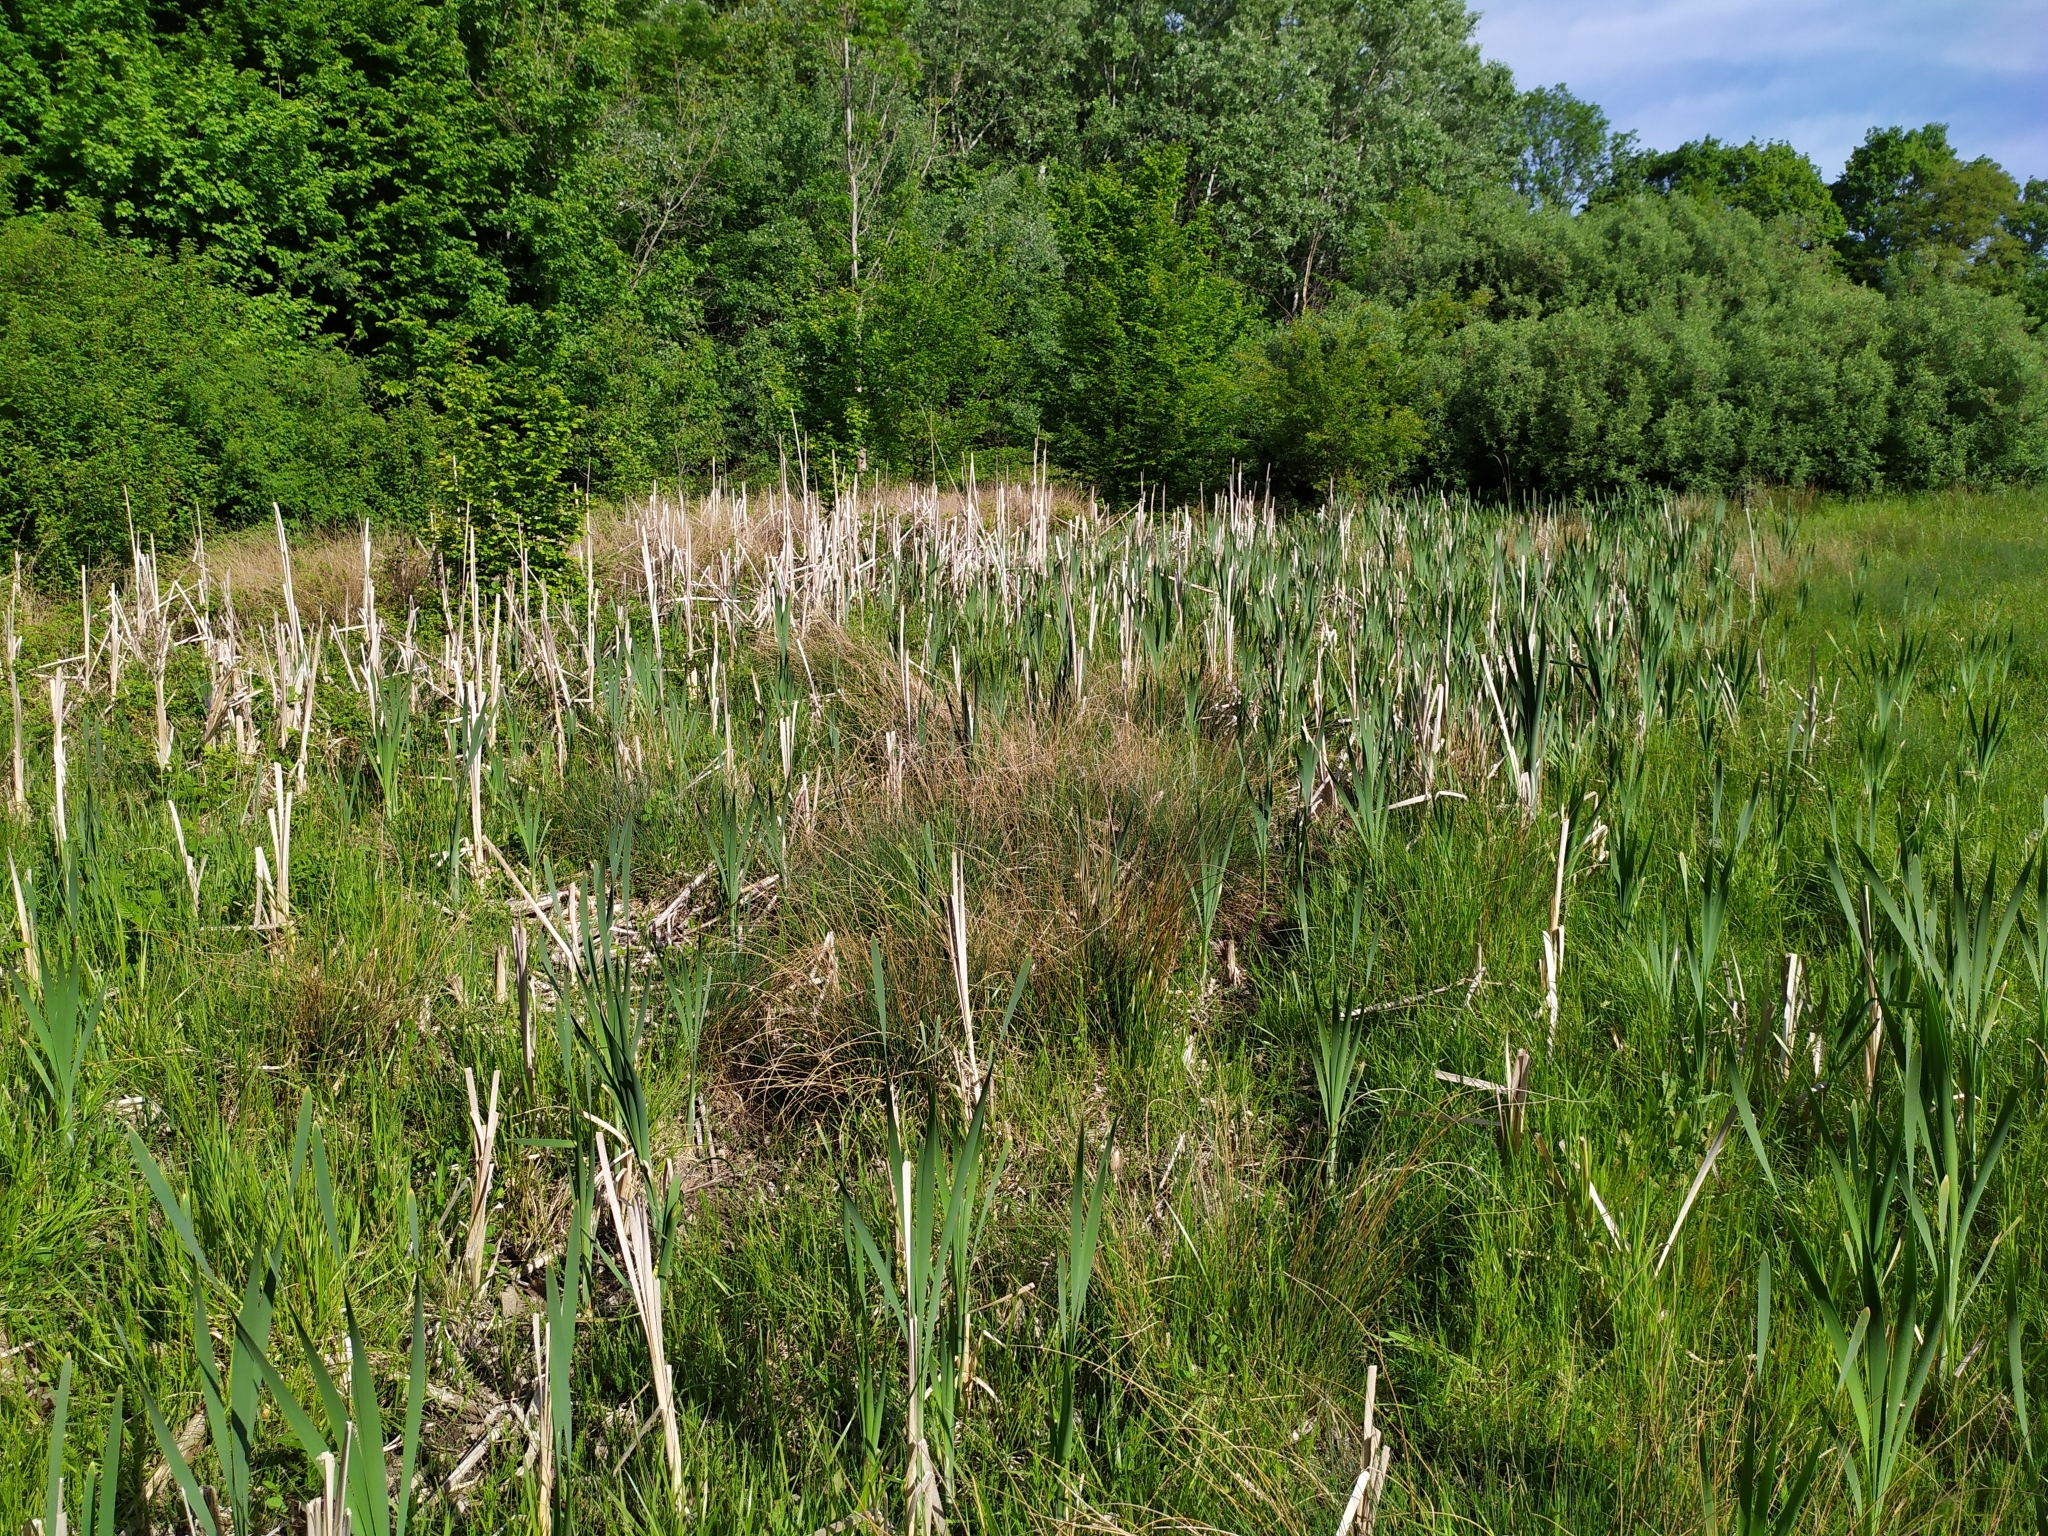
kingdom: Plantae
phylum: Tracheophyta
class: Liliopsida
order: Poales
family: Typhaceae
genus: Typha
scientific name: Typha latifolia
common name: Broadleaf cattail
